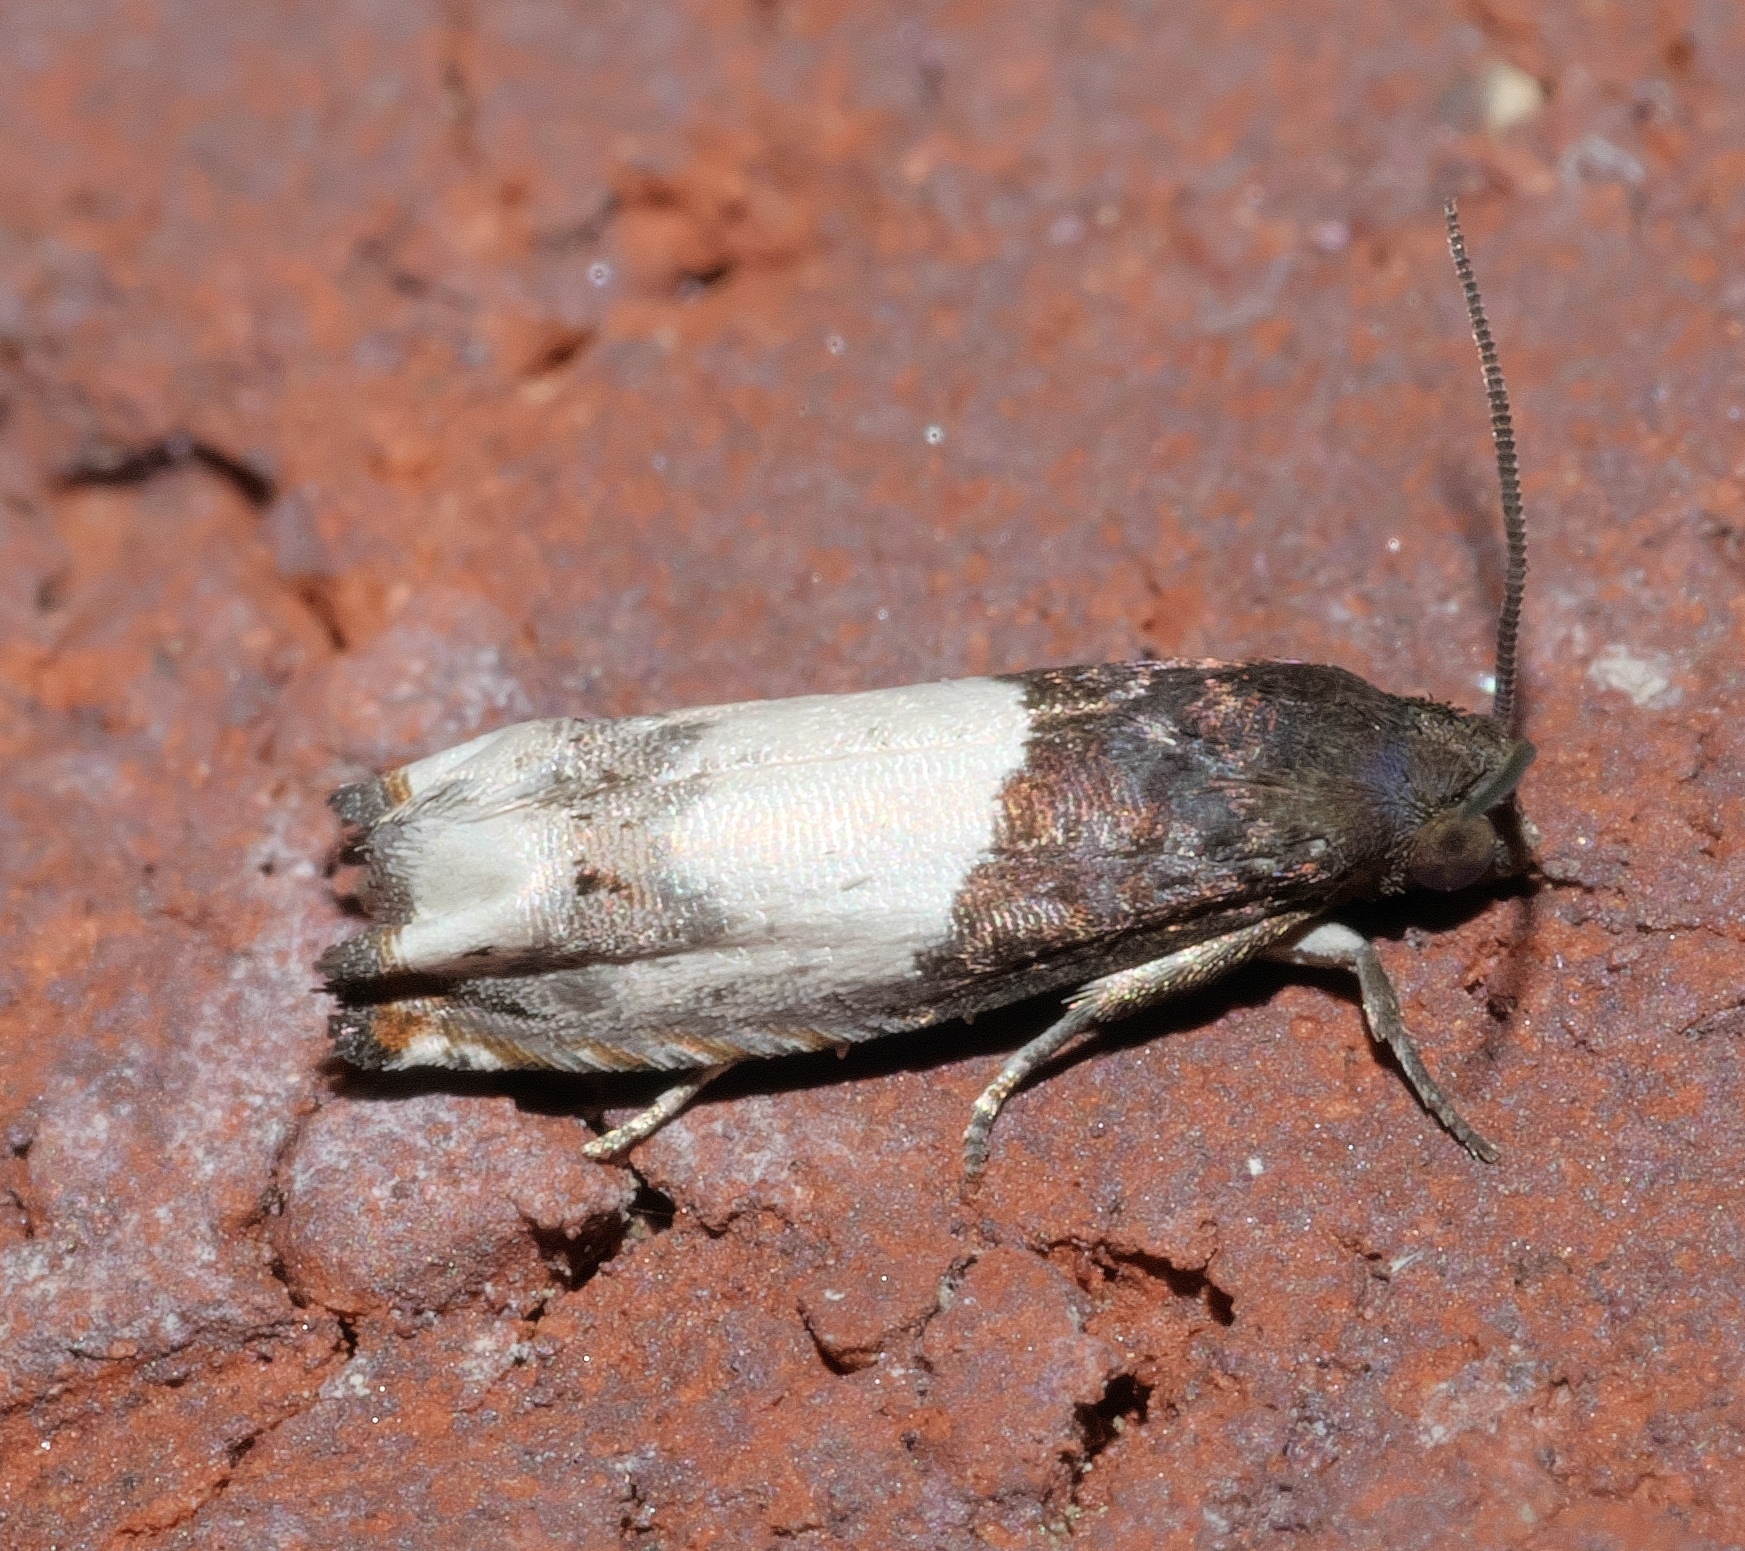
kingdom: Animalia
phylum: Arthropoda
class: Insecta
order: Lepidoptera
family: Tortricidae
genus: Epiblema
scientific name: Epiblema scudderiana
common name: Goldenrod gall moth
